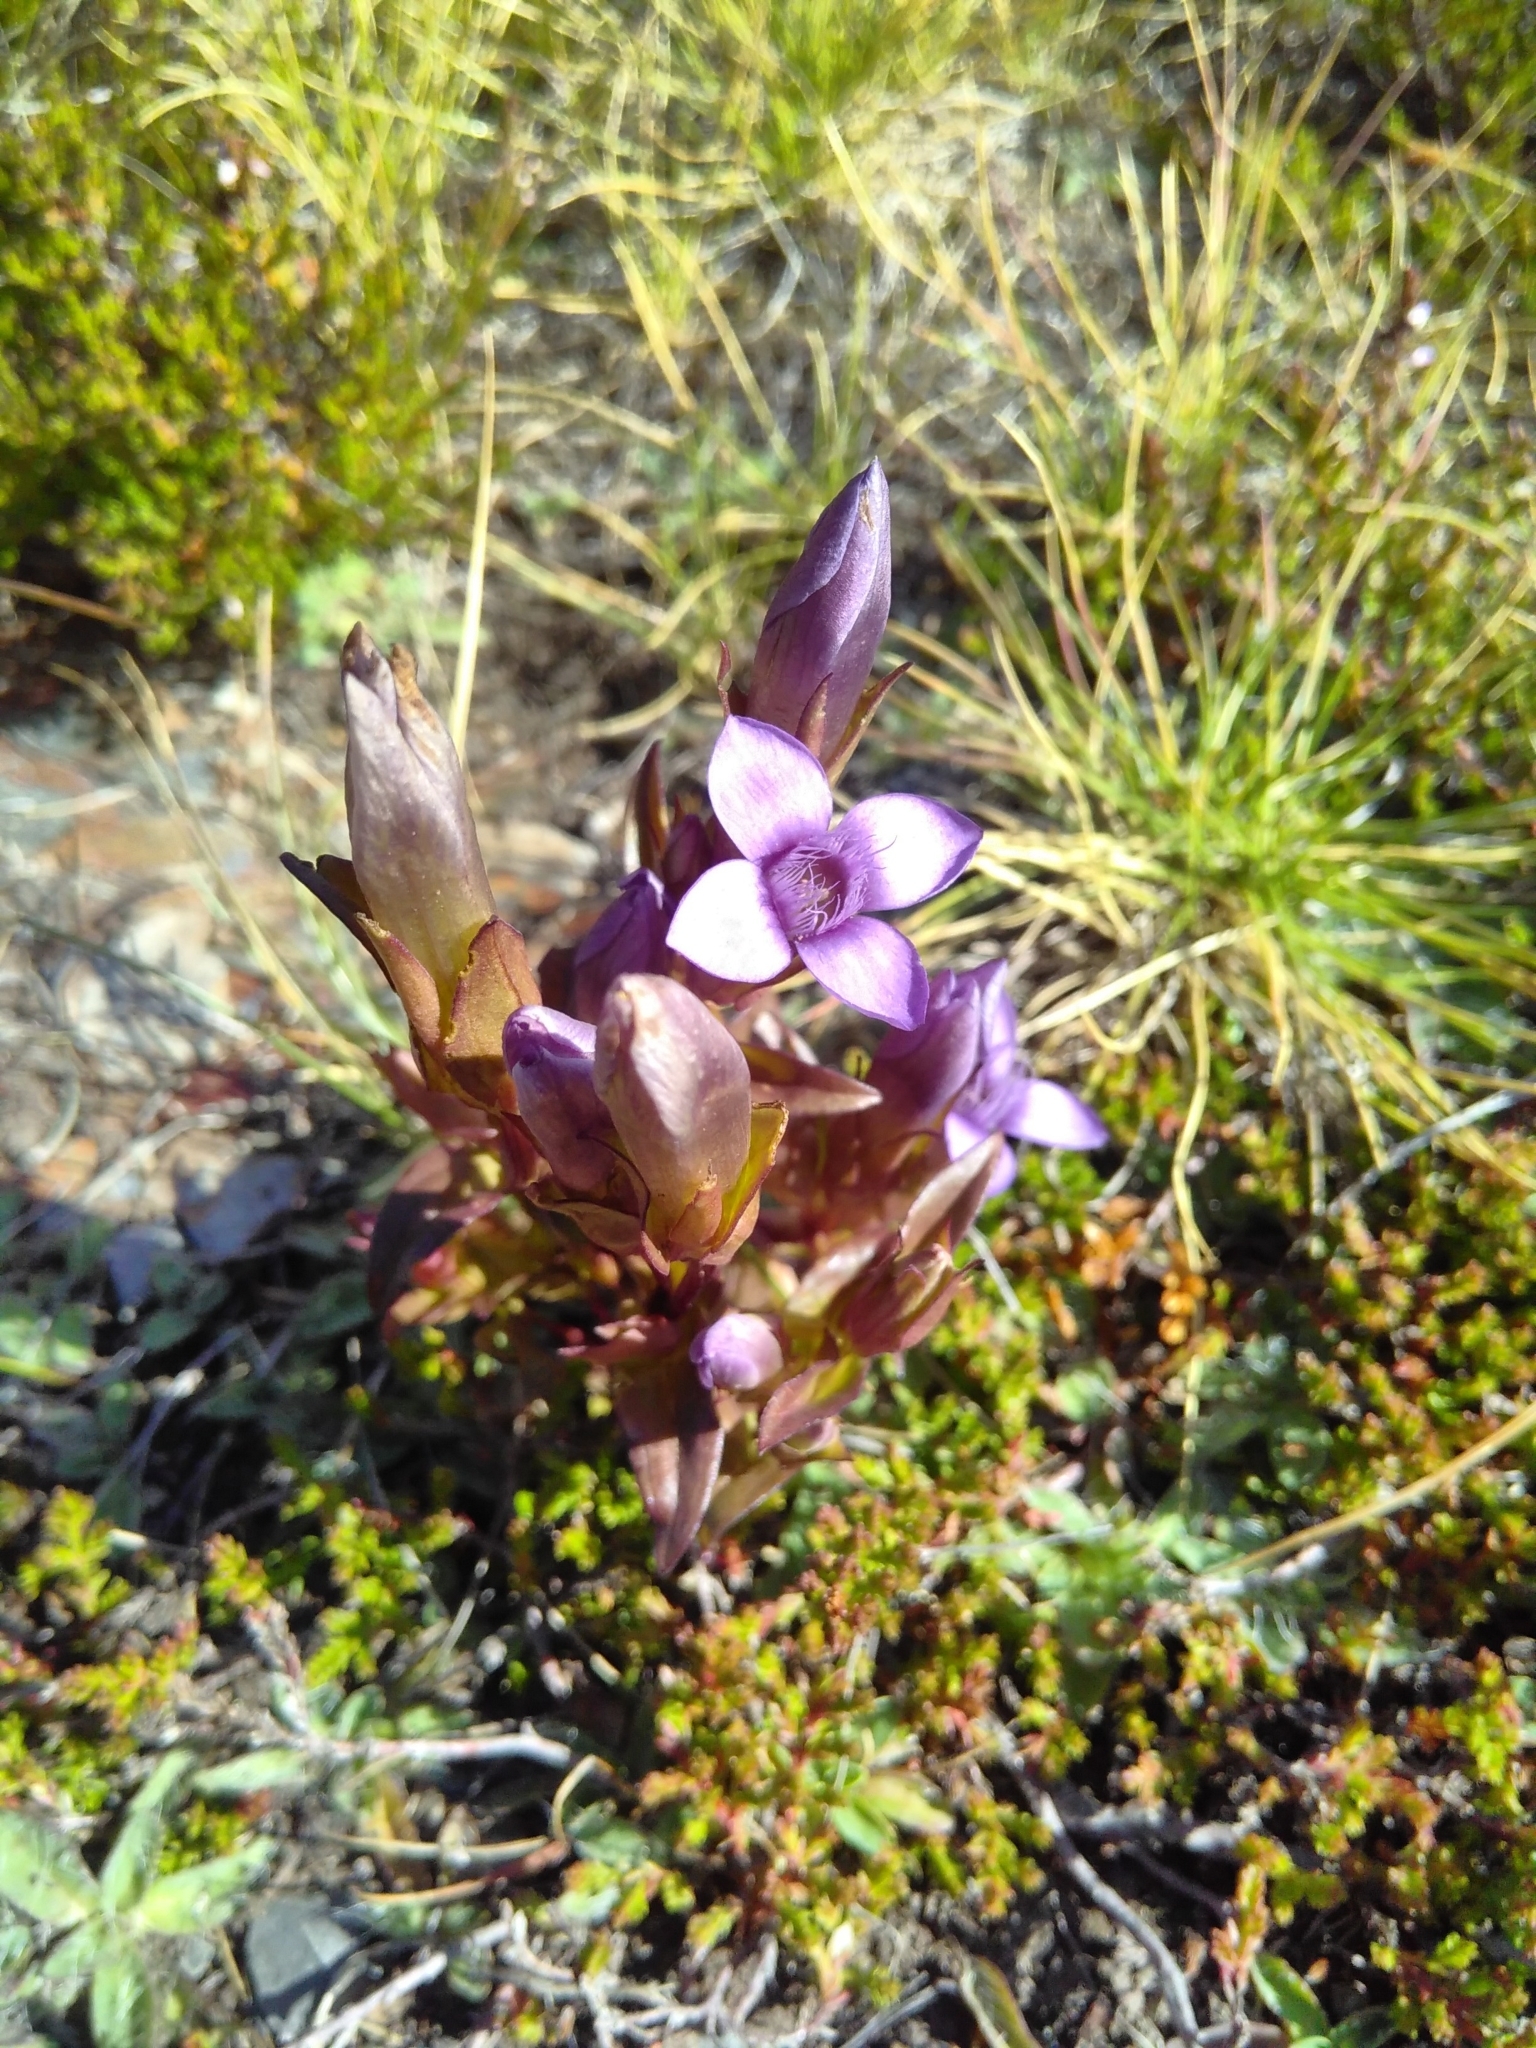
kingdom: Plantae
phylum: Tracheophyta
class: Magnoliopsida
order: Gentianales
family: Gentianaceae
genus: Gentianella
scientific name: Gentianella campestris
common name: Field gentian
